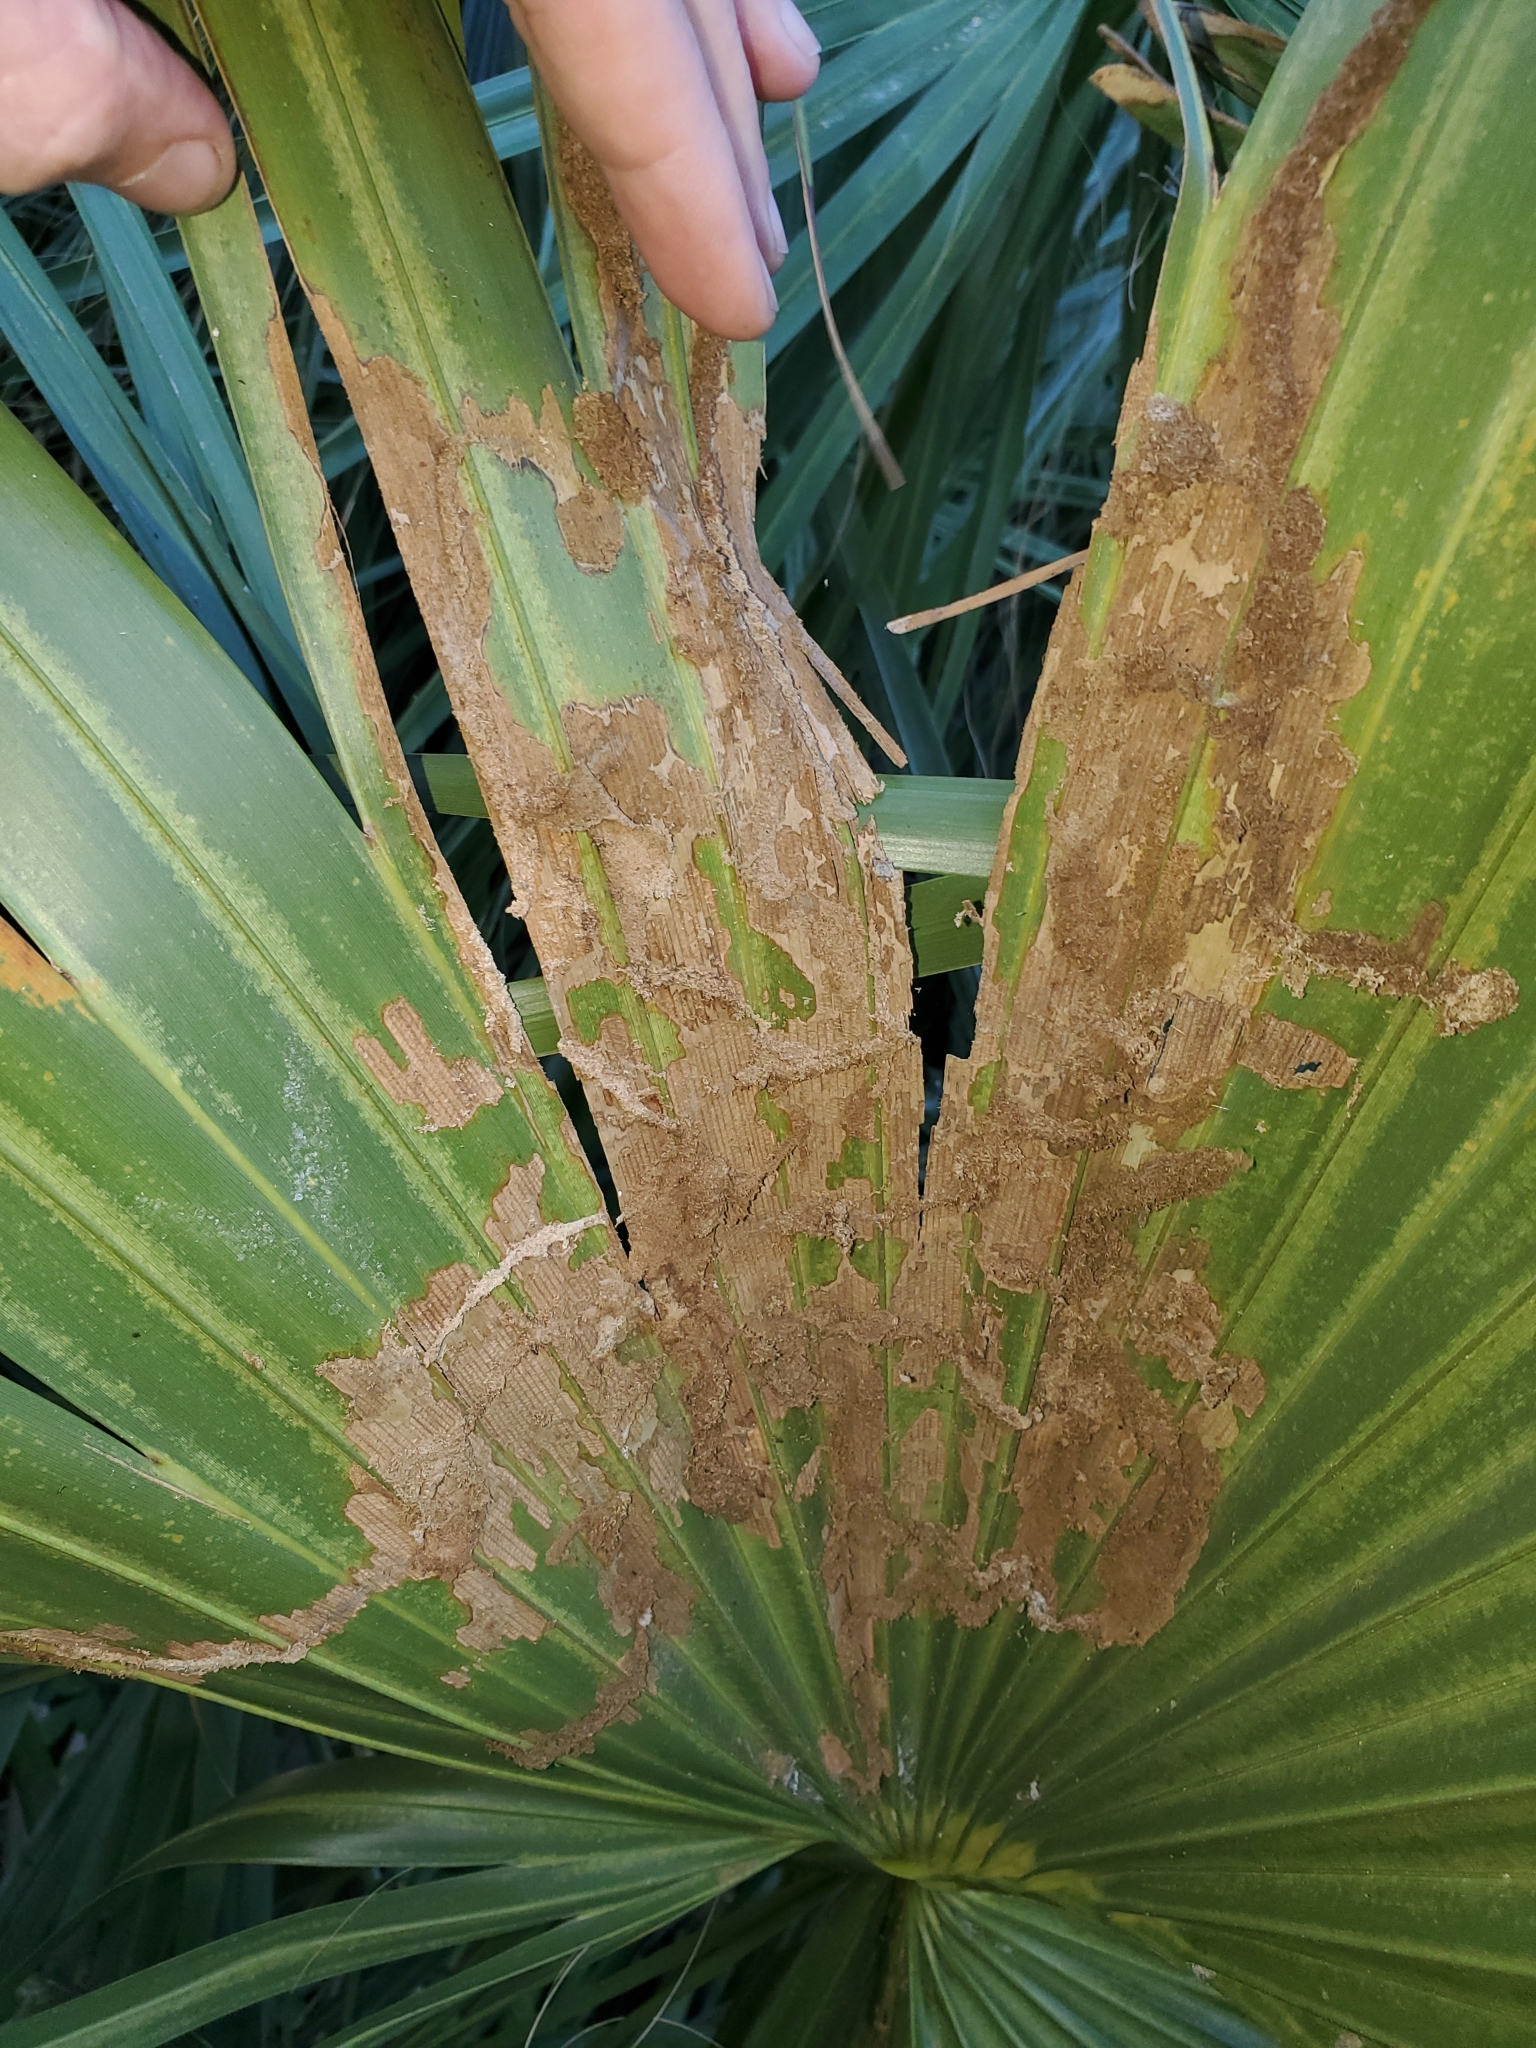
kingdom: Animalia
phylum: Arthropoda
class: Insecta
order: Lepidoptera
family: Coleophoridae
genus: Homaledra
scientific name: Homaledra sabalella
